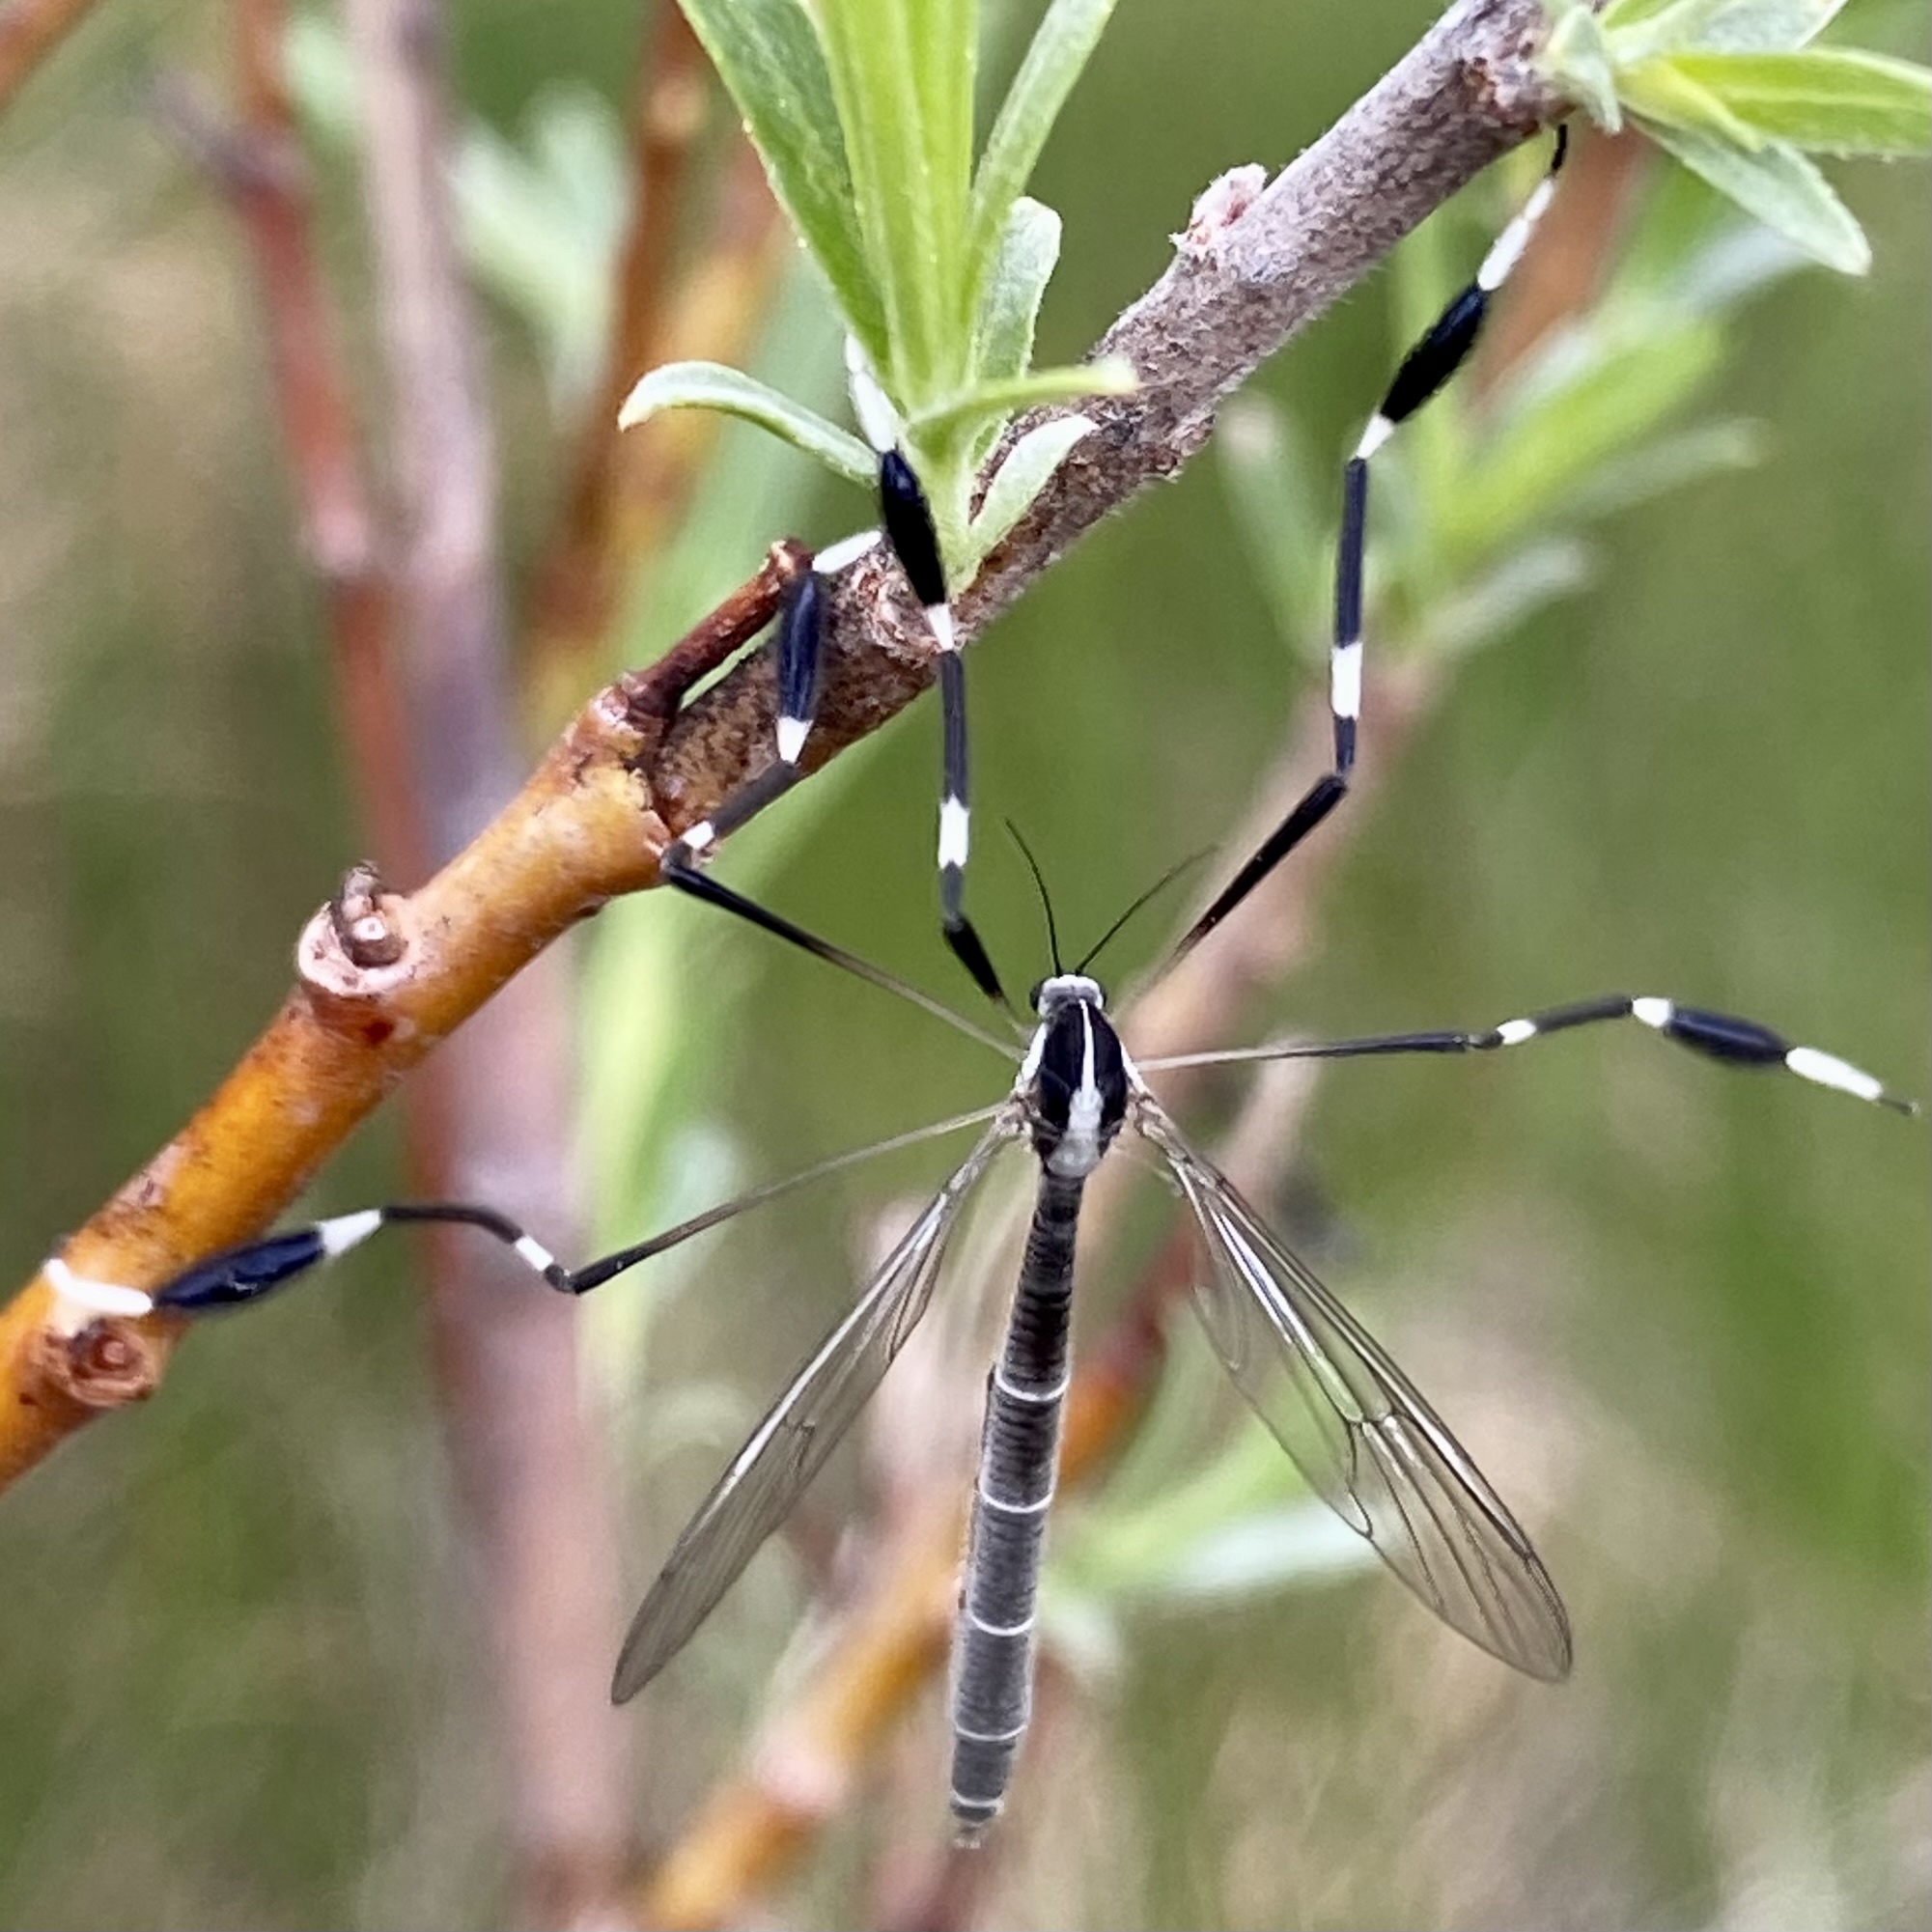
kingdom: Animalia
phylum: Arthropoda
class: Insecta
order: Diptera
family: Ptychopteridae
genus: Bittacomorpha
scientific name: Bittacomorpha clavipes
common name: Eastern phantom crane fly
